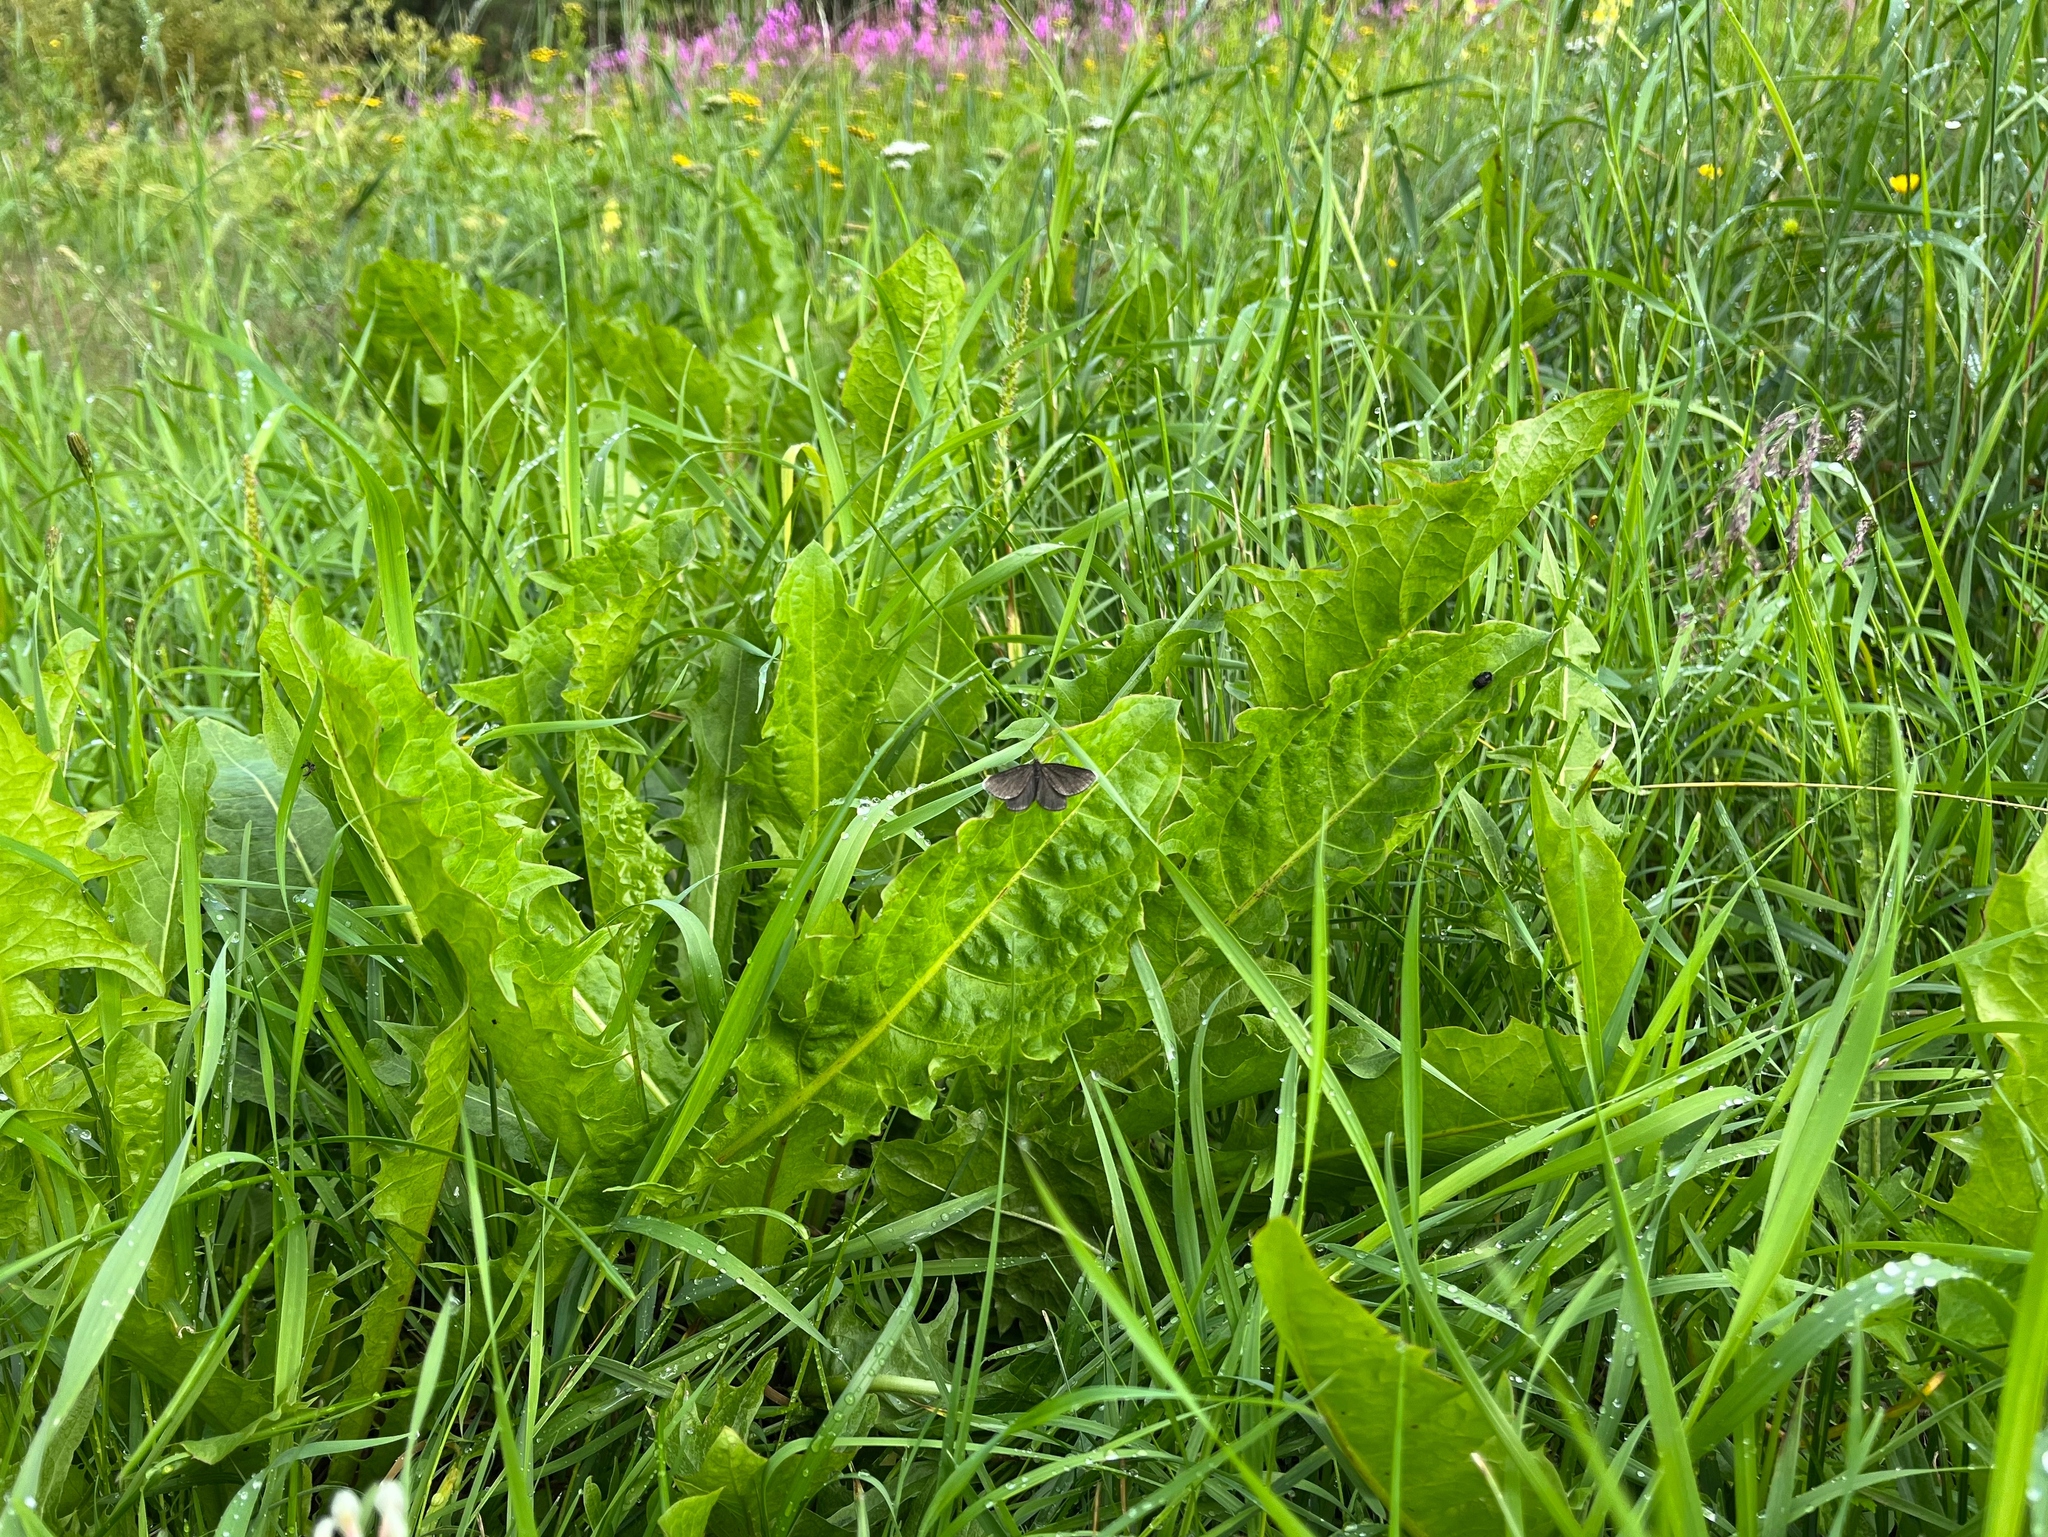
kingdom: Animalia
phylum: Arthropoda
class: Insecta
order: Lepidoptera
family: Geometridae
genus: Odezia
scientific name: Odezia atrata
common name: Chimney sweeper
